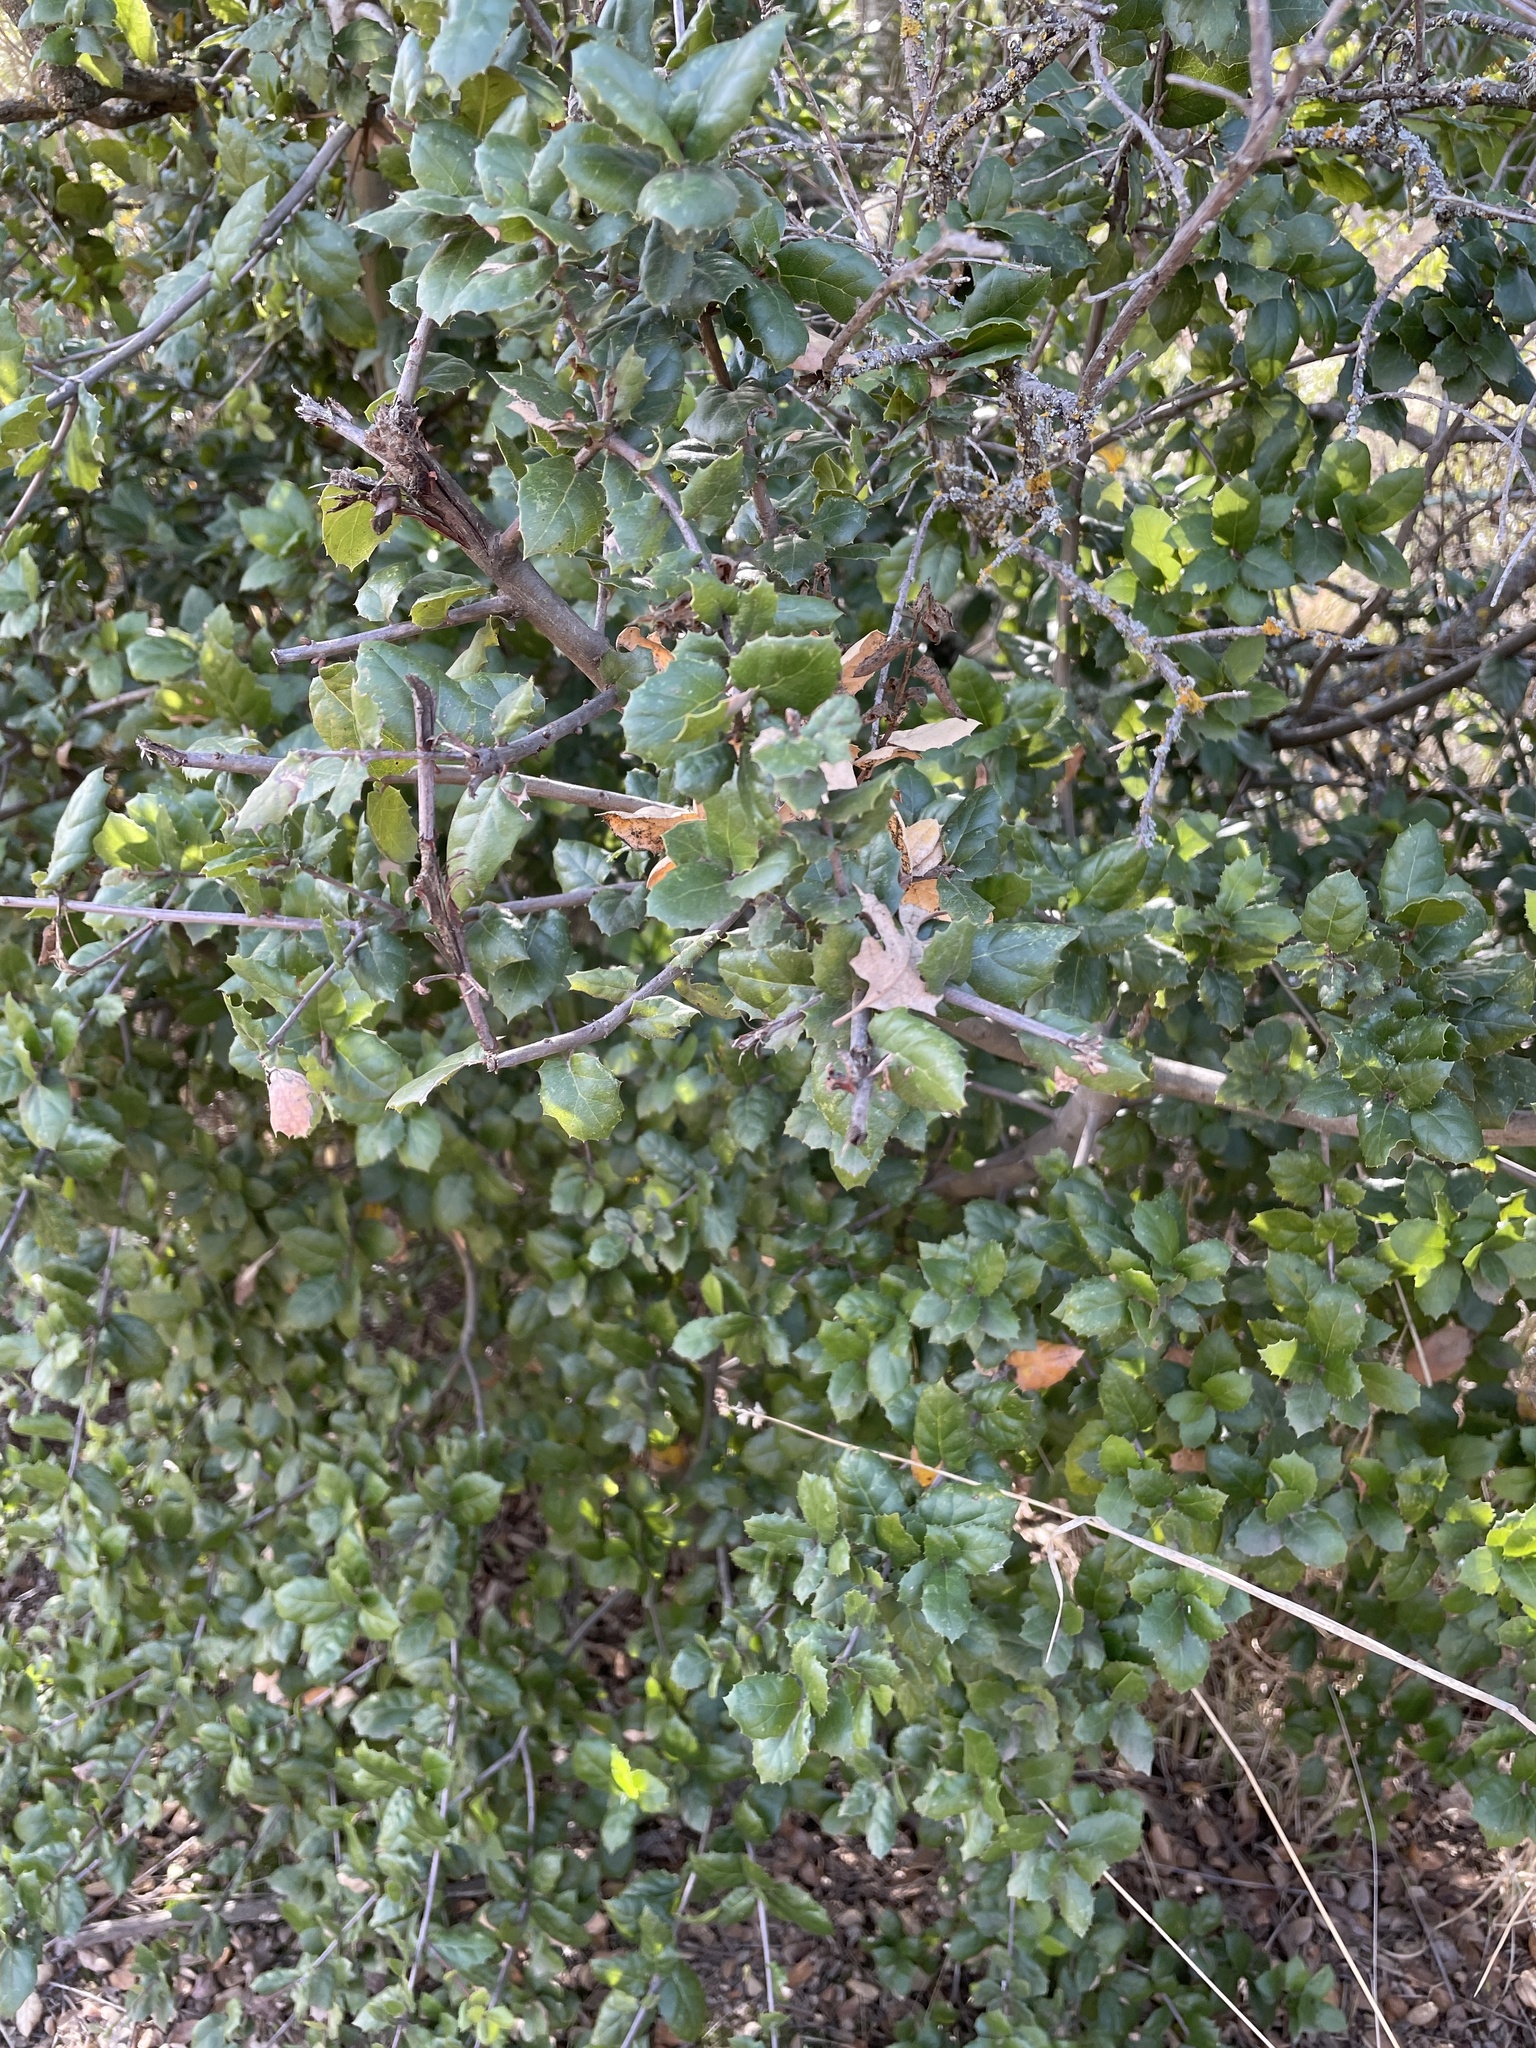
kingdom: Plantae
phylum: Tracheophyta
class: Magnoliopsida
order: Fagales
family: Fagaceae
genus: Quercus
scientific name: Quercus agrifolia
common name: California live oak
